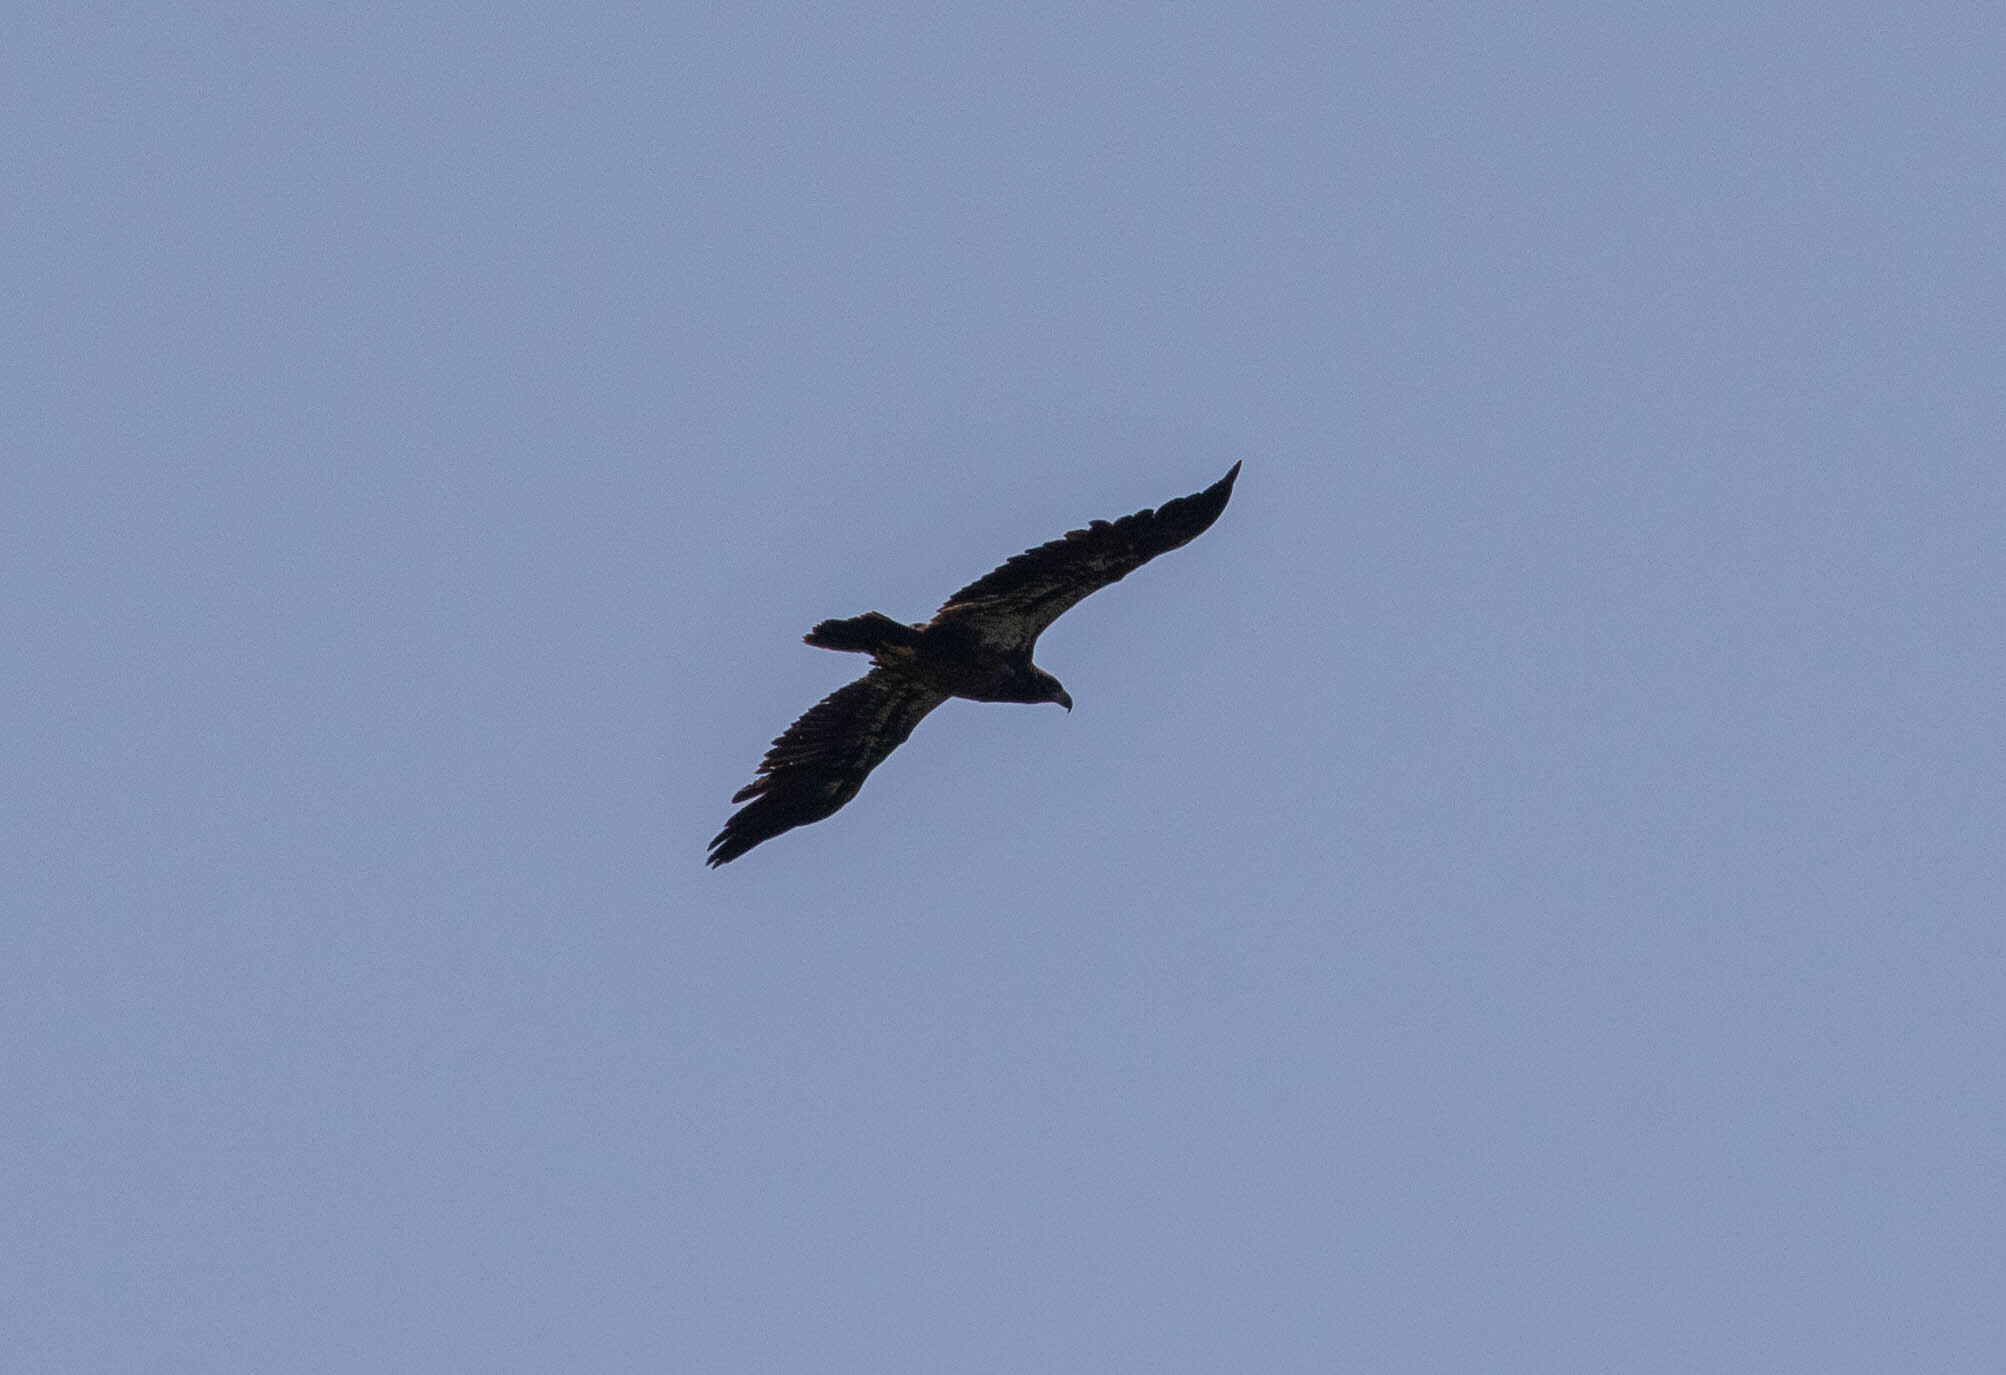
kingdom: Animalia
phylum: Chordata
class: Aves
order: Accipitriformes
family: Accipitridae
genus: Haliaeetus
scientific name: Haliaeetus leucocephalus
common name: Bald eagle
